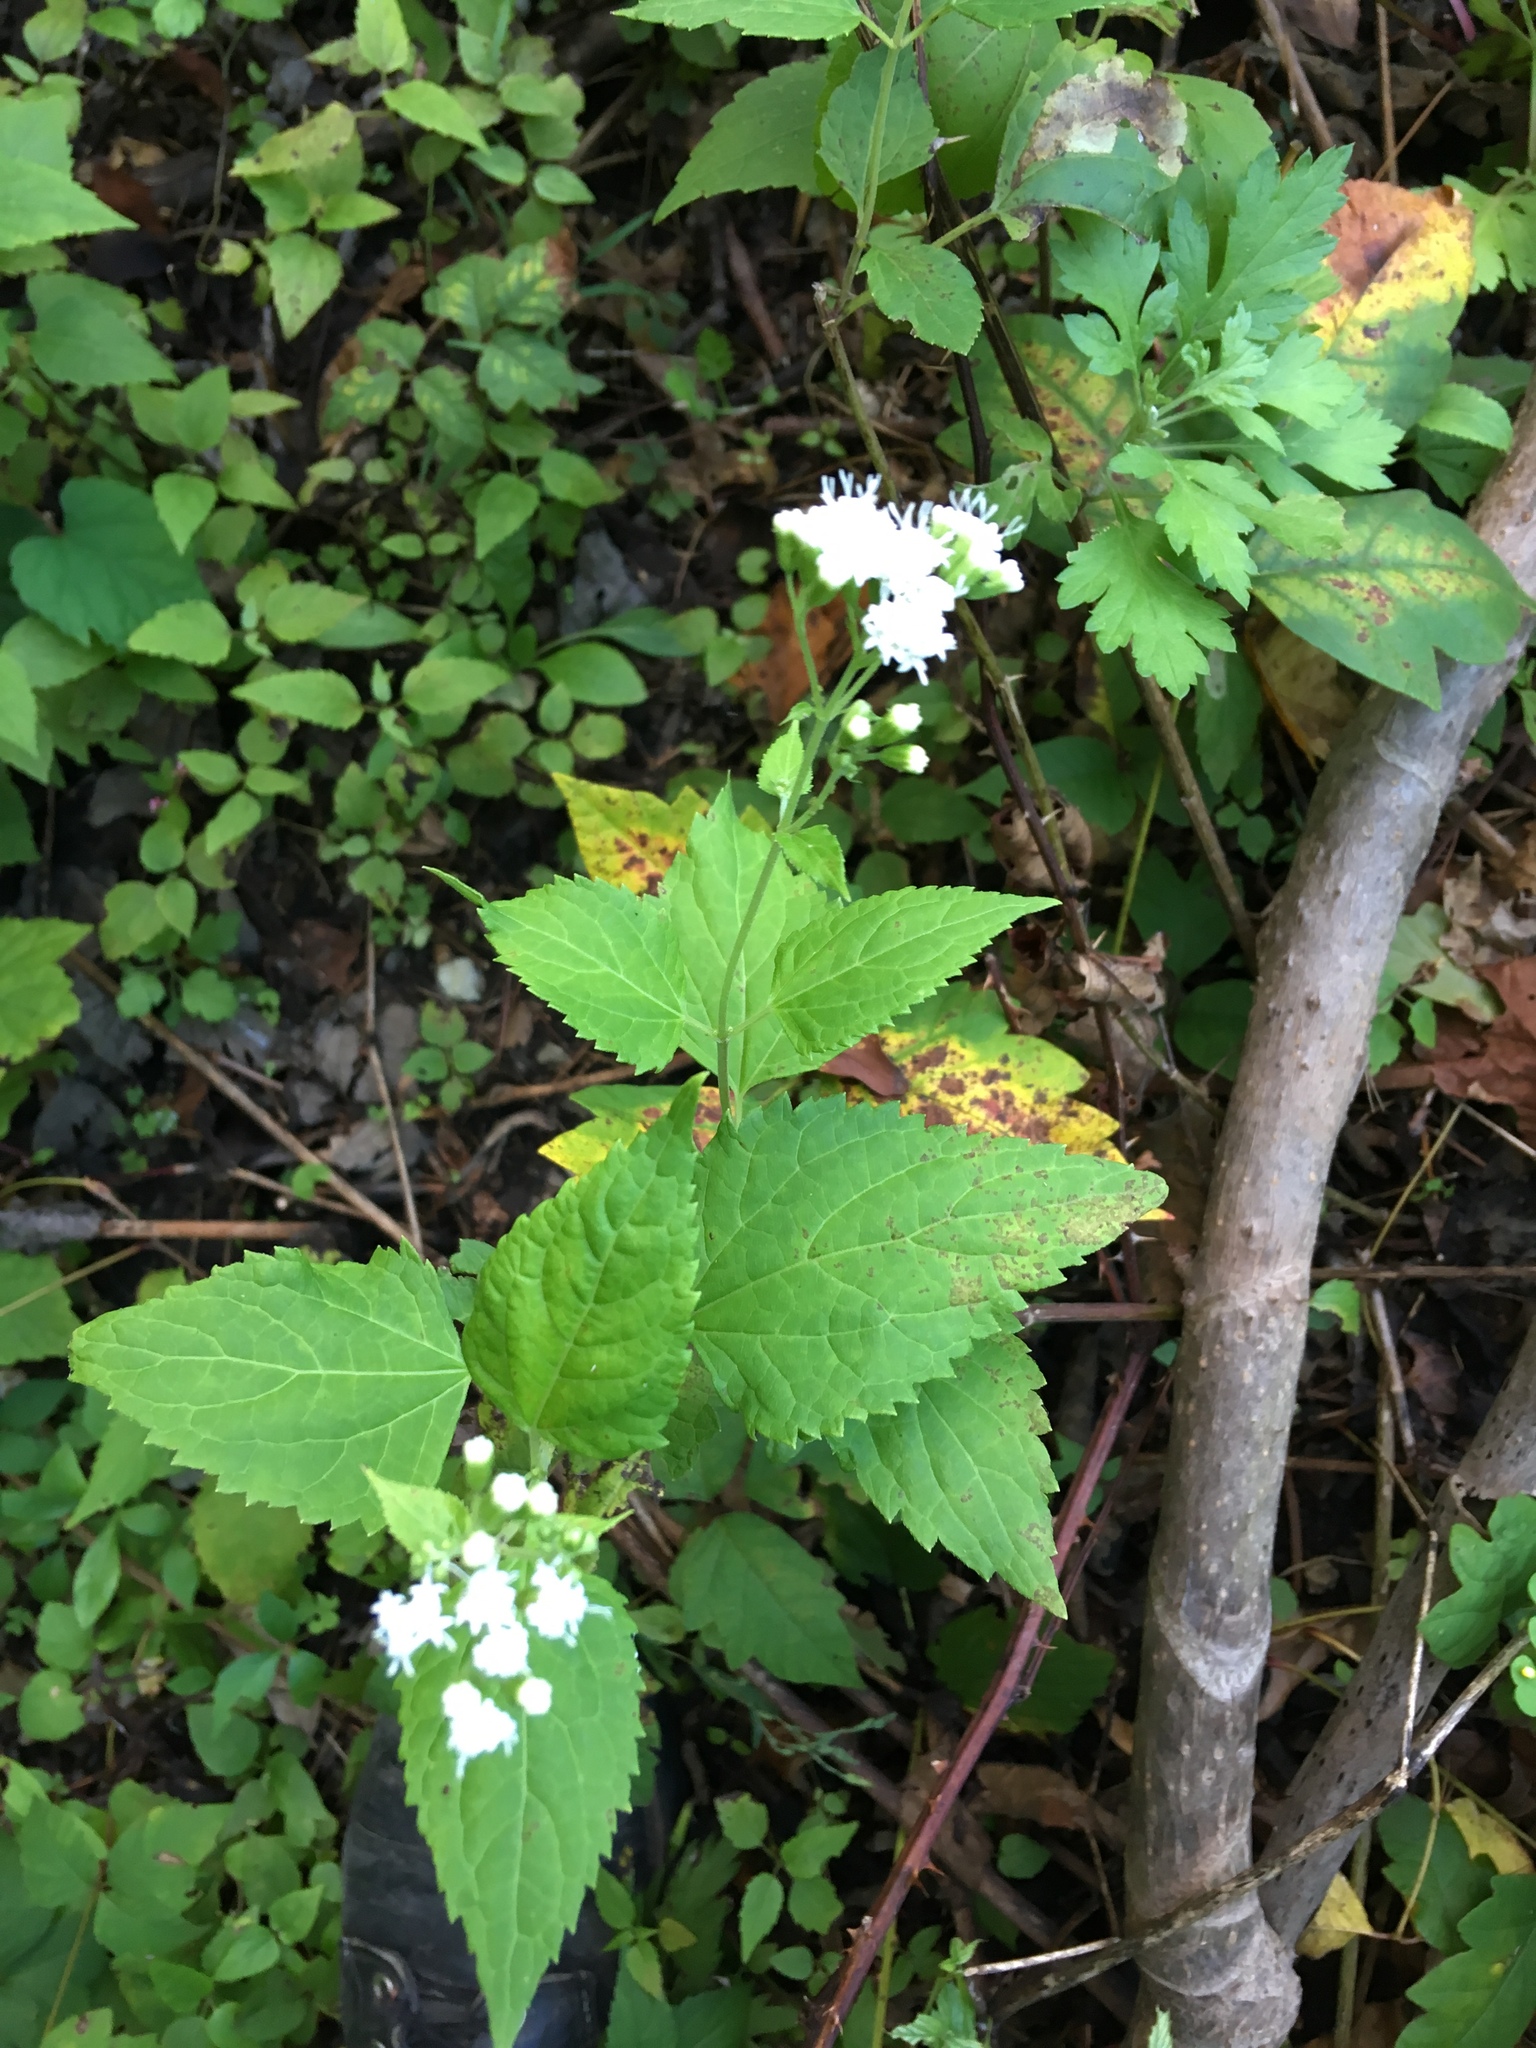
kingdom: Plantae
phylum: Tracheophyta
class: Magnoliopsida
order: Asterales
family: Asteraceae
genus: Ageratina
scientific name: Ageratina altissima
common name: White snakeroot
